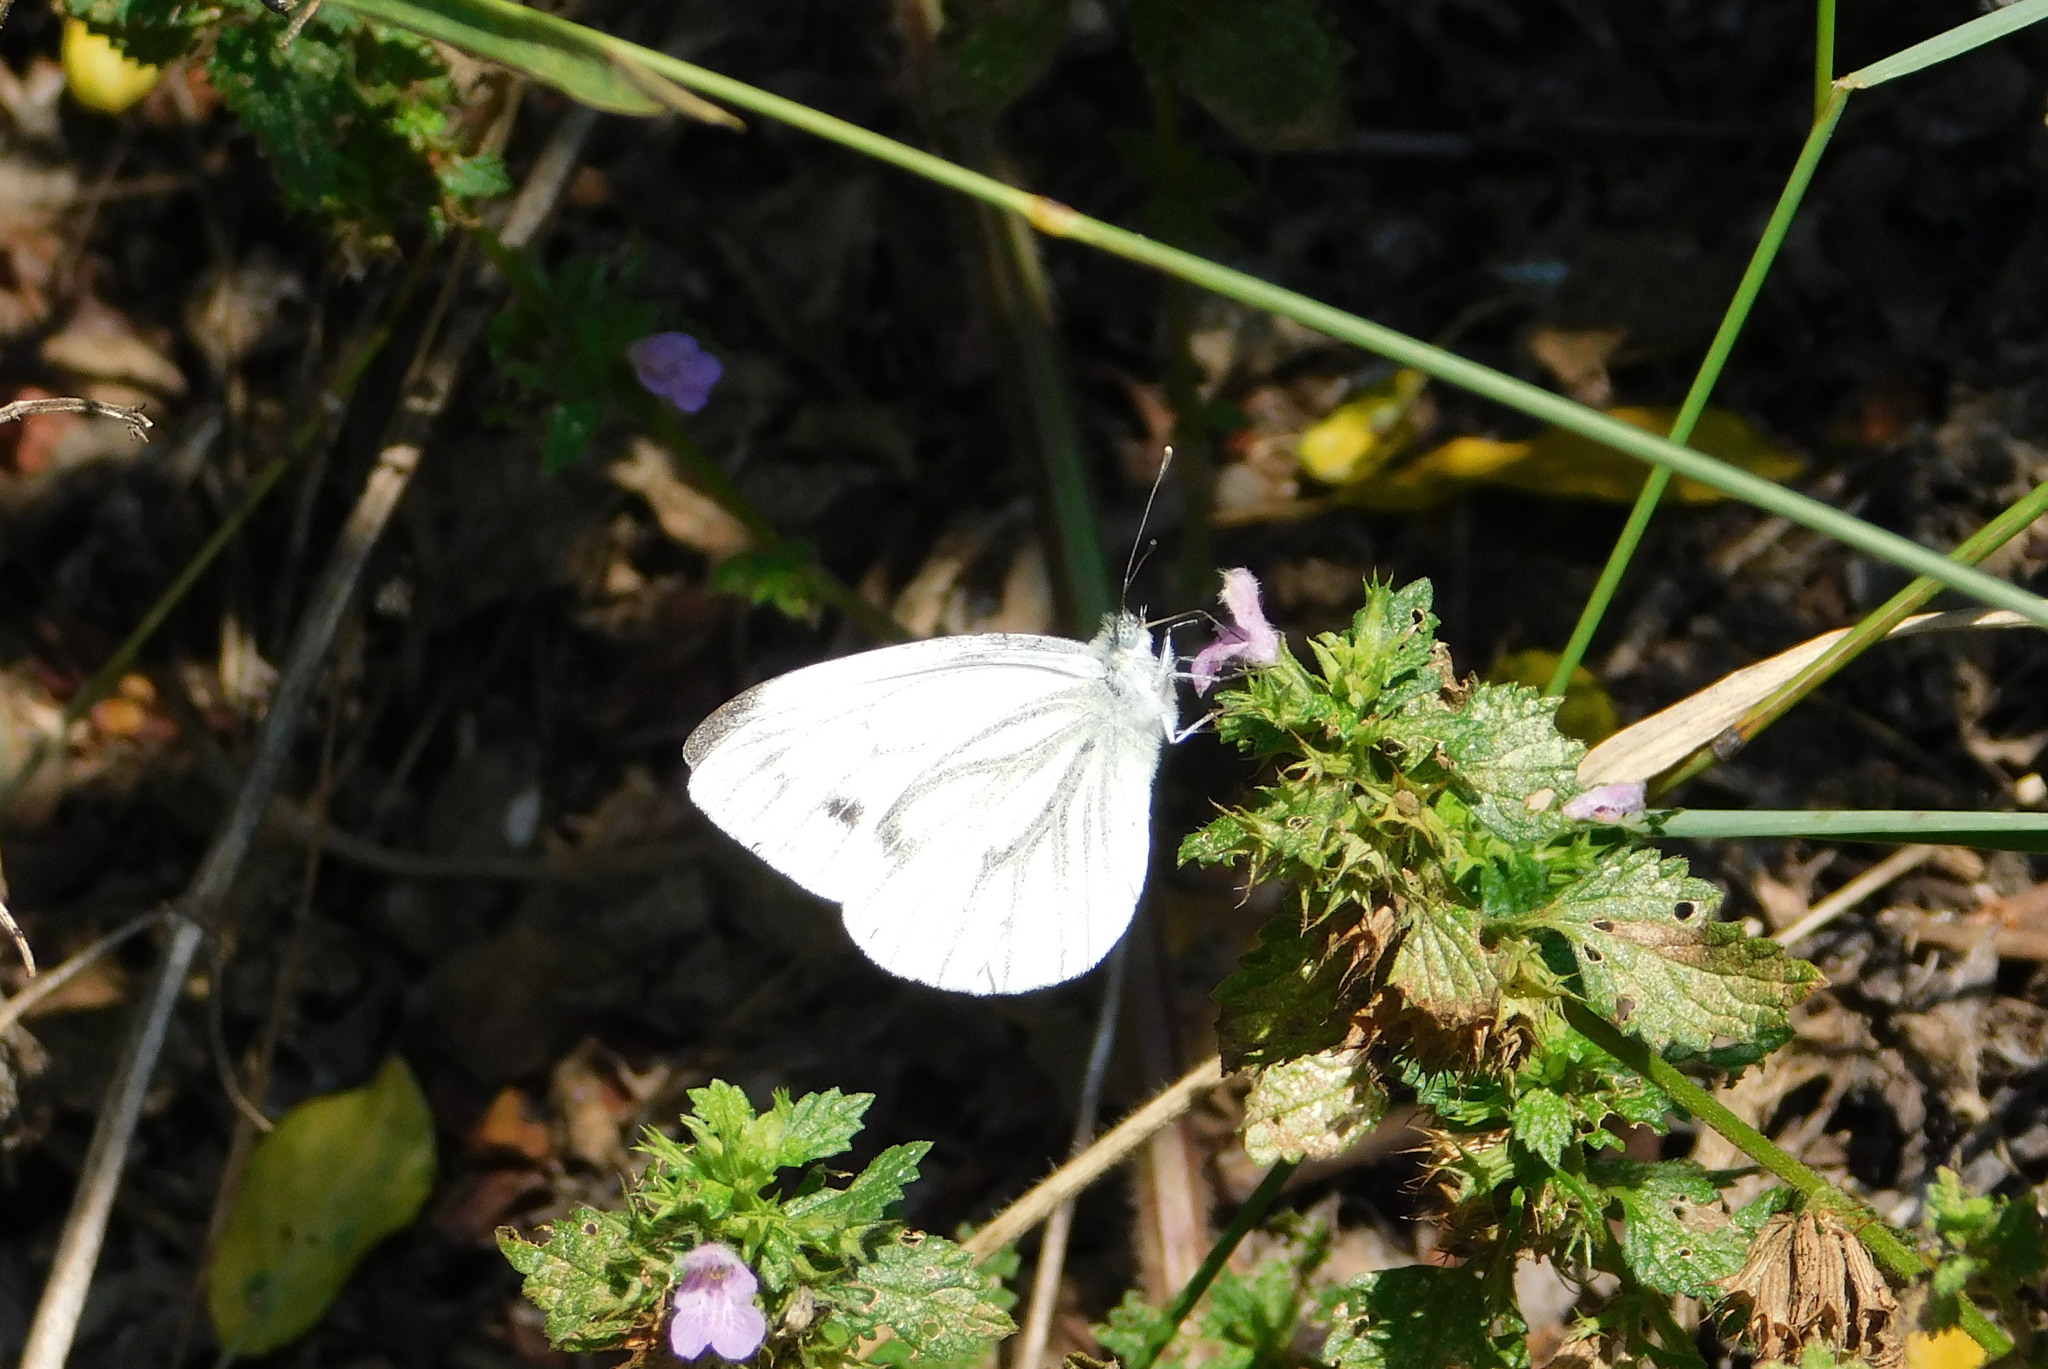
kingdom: Animalia
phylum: Arthropoda
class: Insecta
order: Lepidoptera
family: Pieridae
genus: Pieris
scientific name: Pieris napi
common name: Green-veined white
